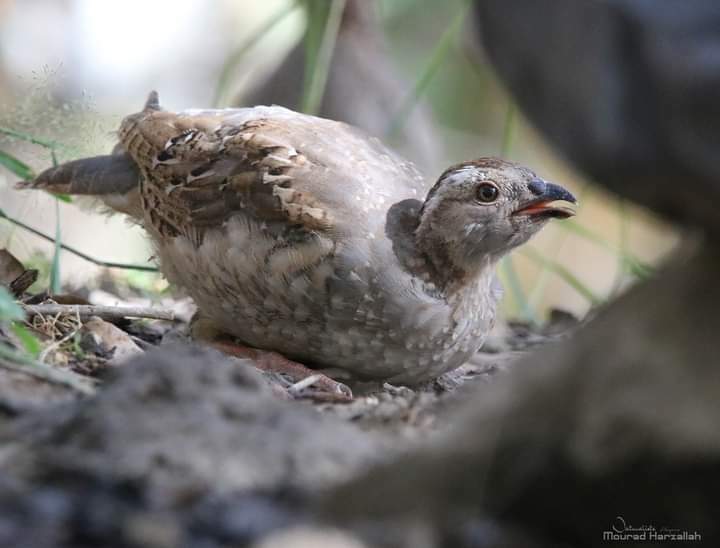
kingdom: Animalia
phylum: Chordata
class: Aves
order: Galliformes
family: Phasianidae
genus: Alectoris
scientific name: Alectoris barbara
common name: Barbary partridge
